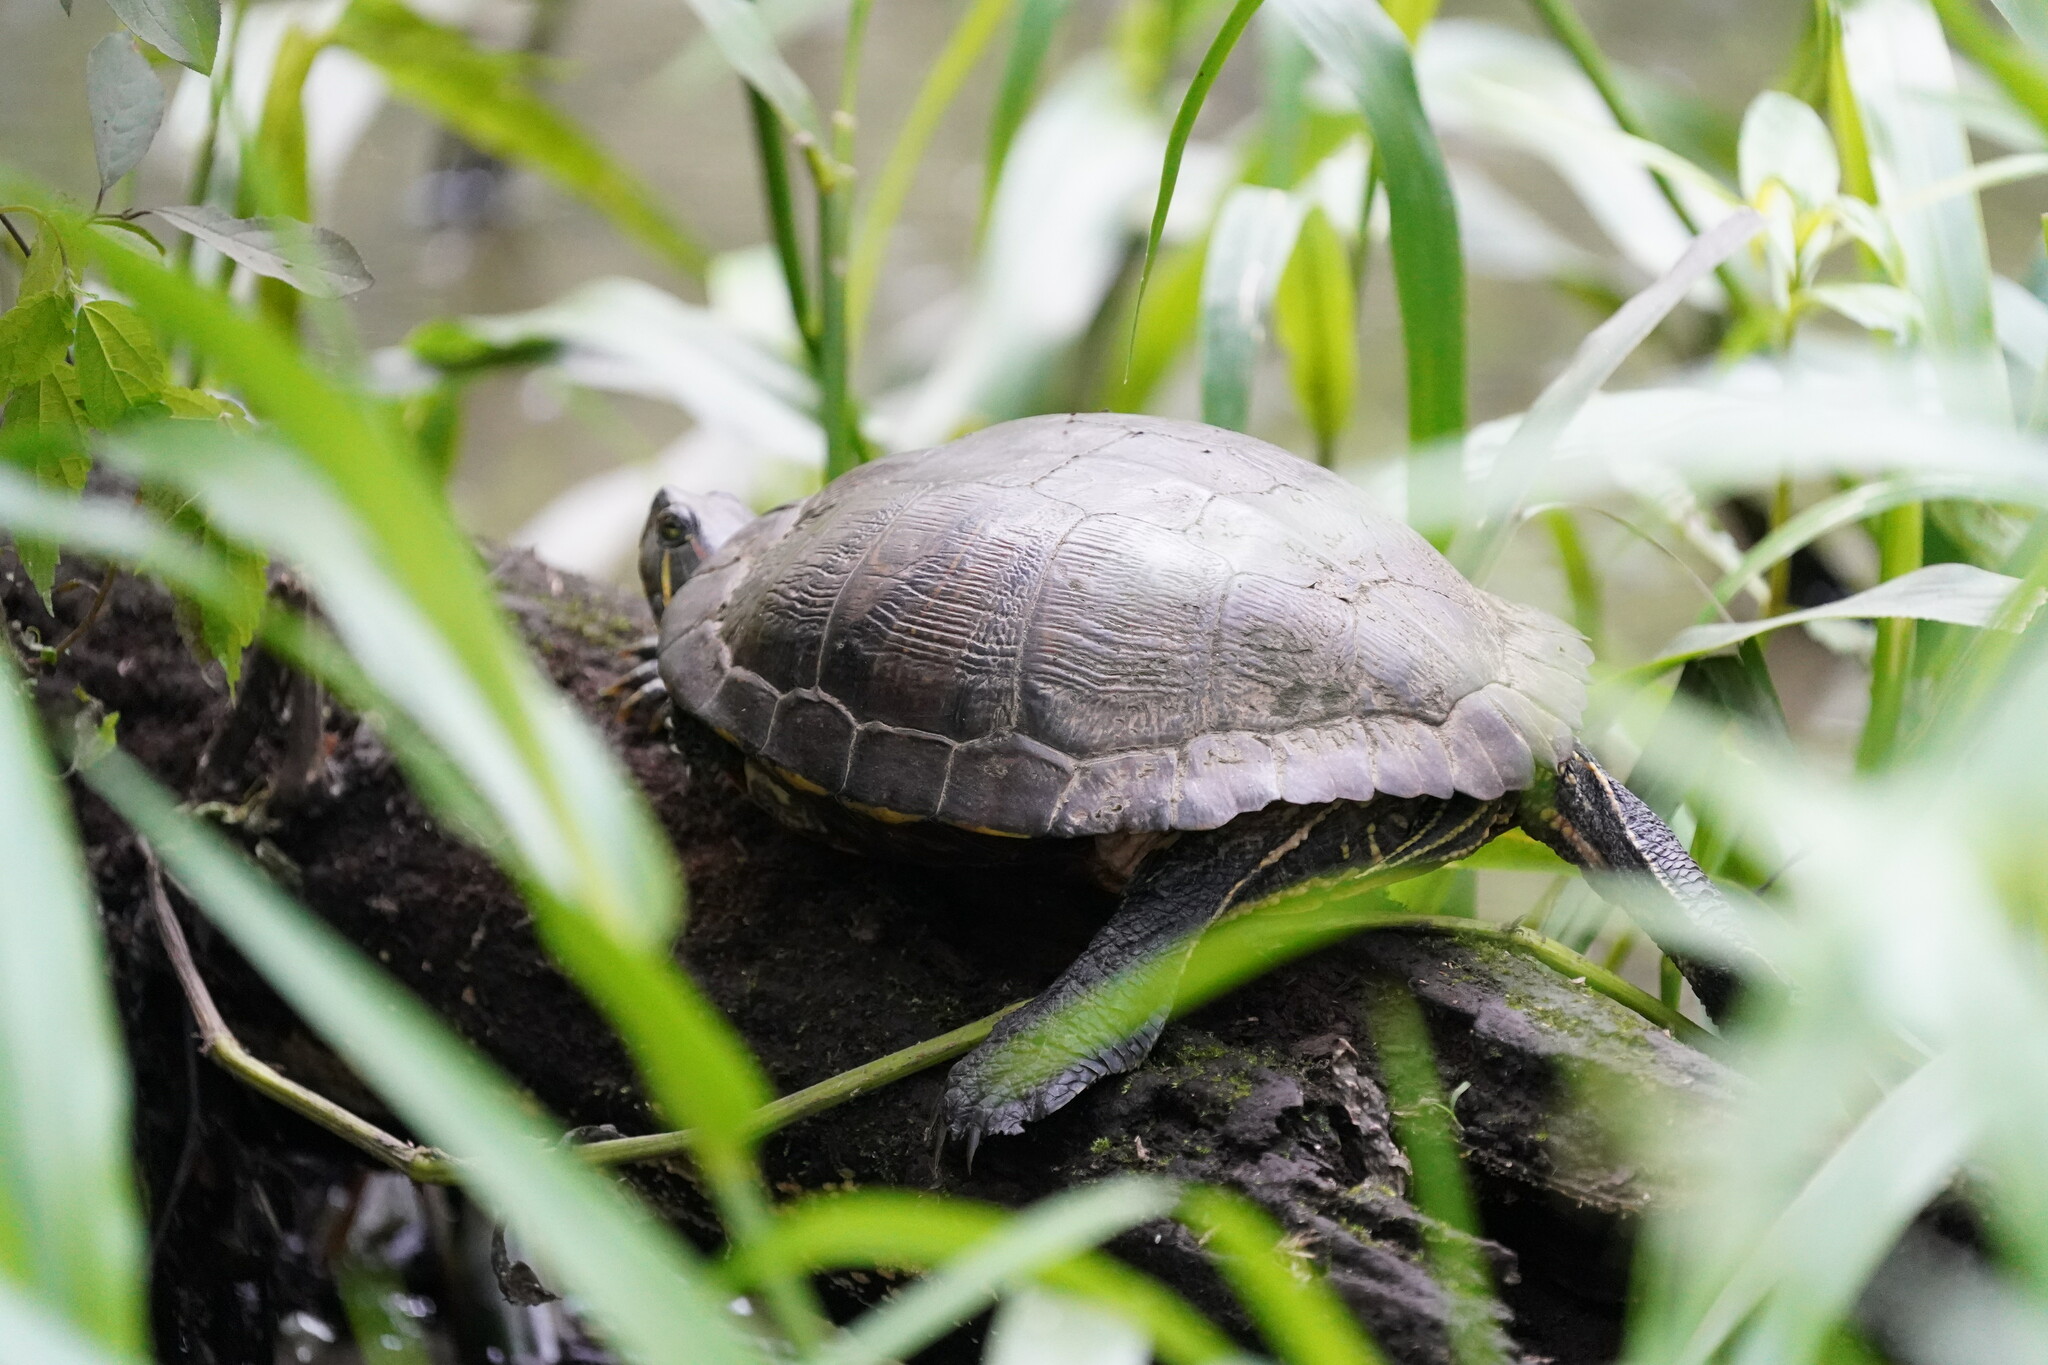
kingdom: Animalia
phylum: Chordata
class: Testudines
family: Emydidae
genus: Trachemys
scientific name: Trachemys scripta
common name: Slider
